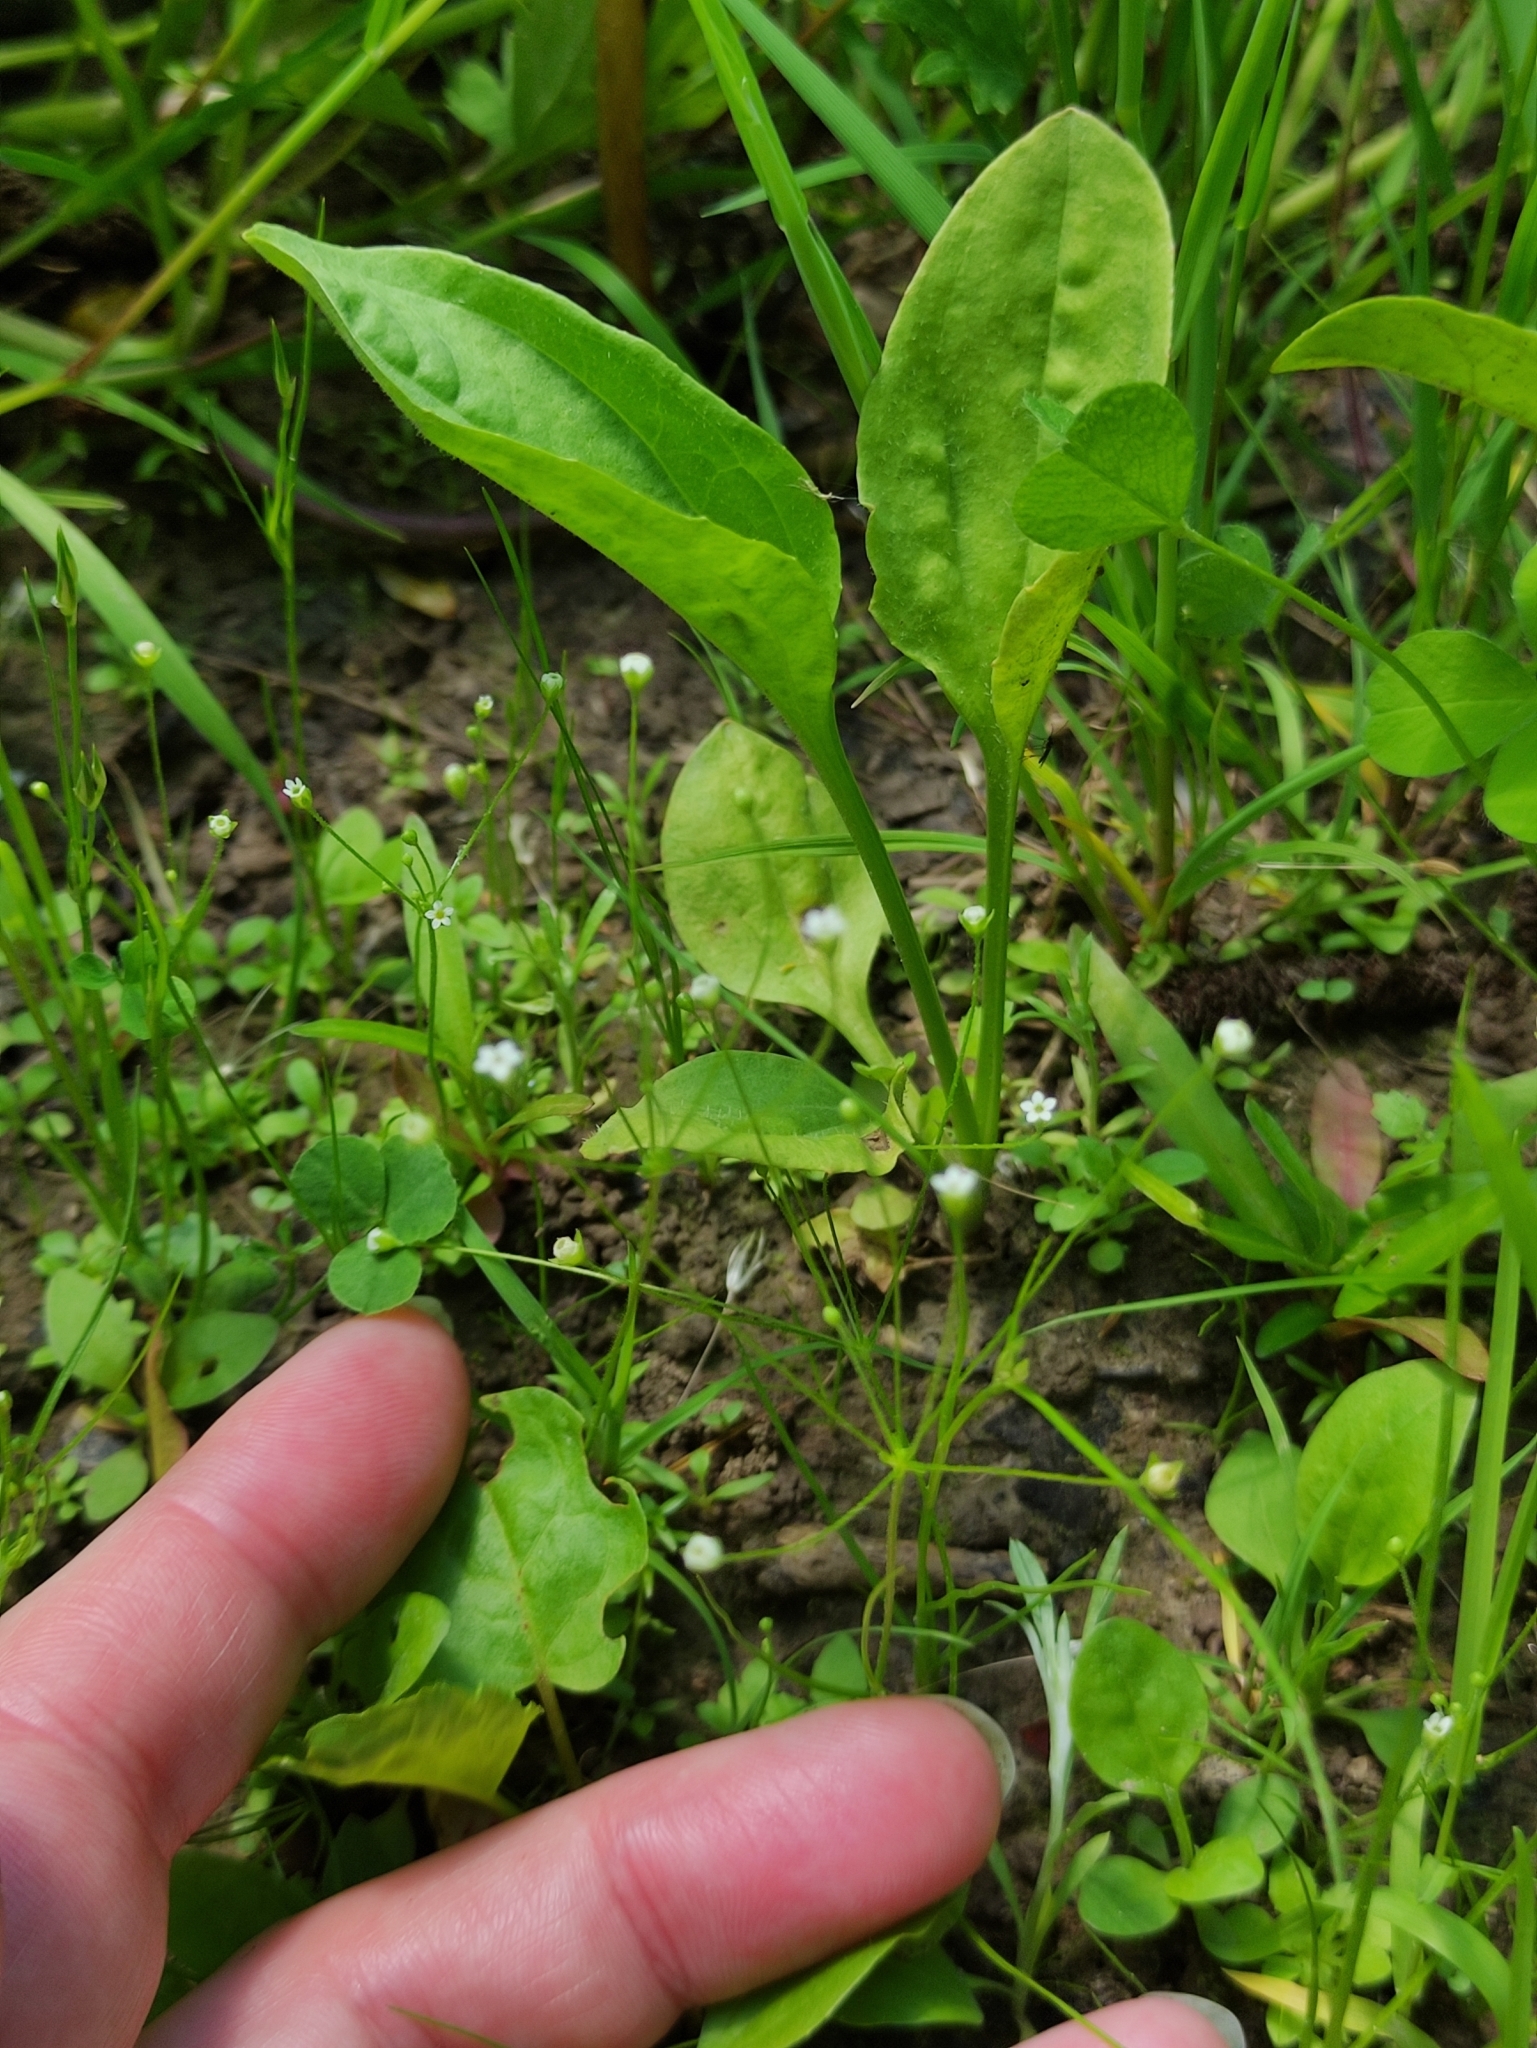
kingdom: Plantae
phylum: Tracheophyta
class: Magnoliopsida
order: Ericales
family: Primulaceae
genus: Androsace
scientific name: Androsace filiformis
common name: Filiform rock jasmine
